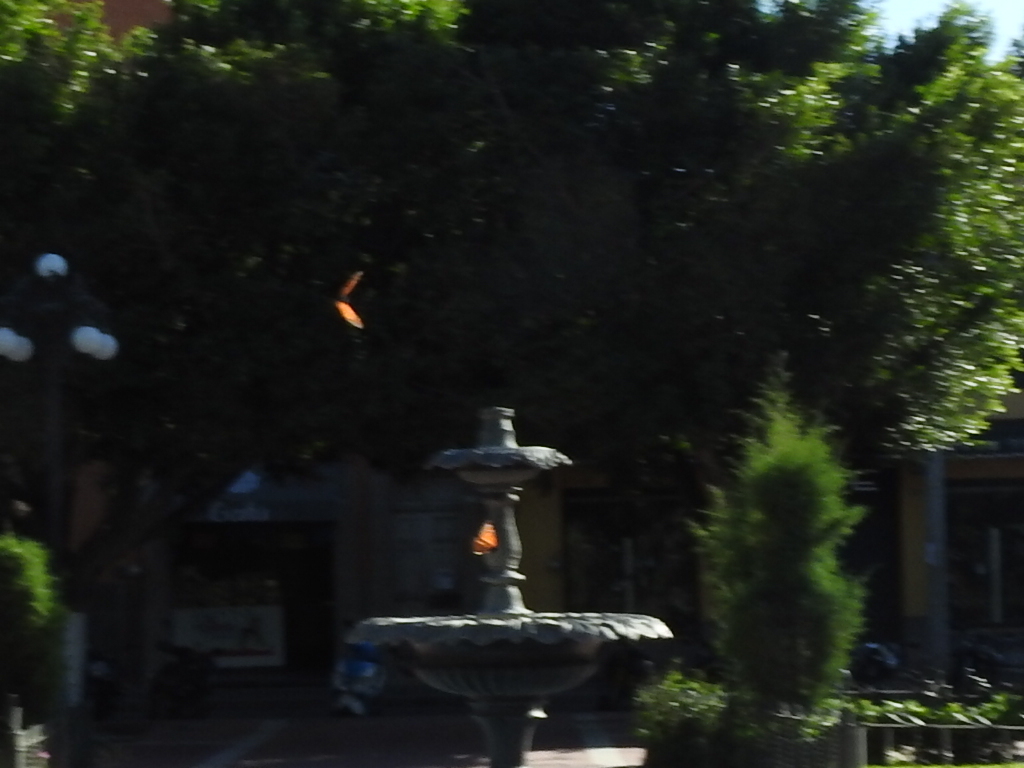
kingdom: Animalia
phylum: Arthropoda
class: Insecta
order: Lepidoptera
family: Nymphalidae
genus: Danaus
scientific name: Danaus plexippus
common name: Monarch
